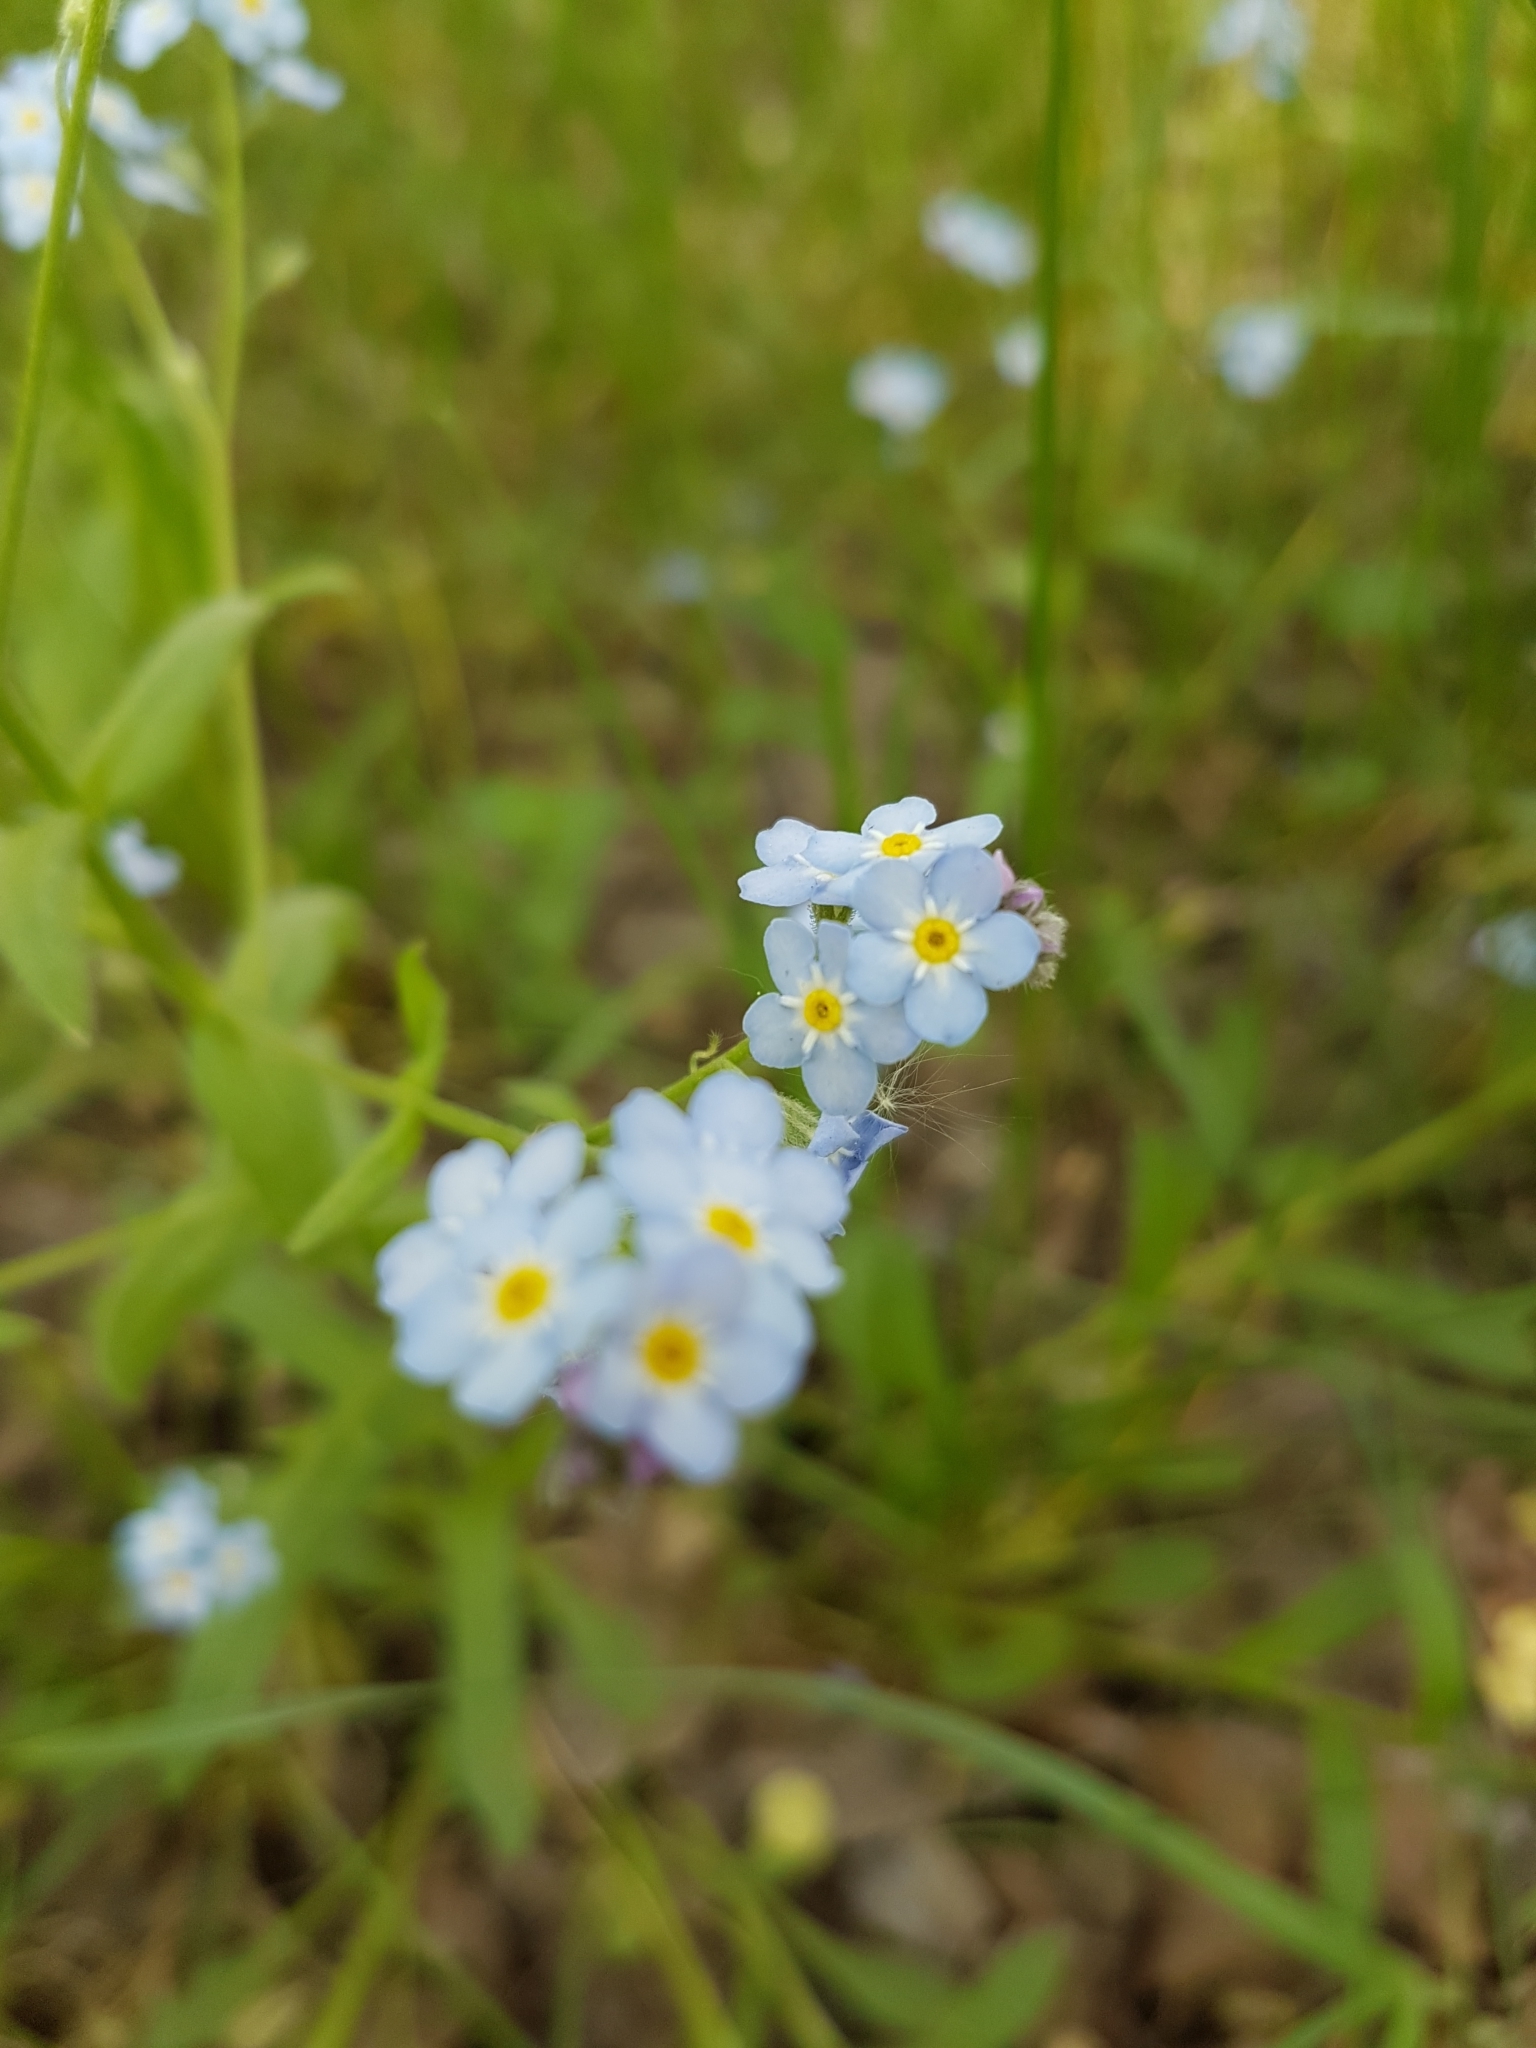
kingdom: Plantae
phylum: Tracheophyta
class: Magnoliopsida
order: Boraginales
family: Boraginaceae
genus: Myosotis
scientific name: Myosotis krylovii
